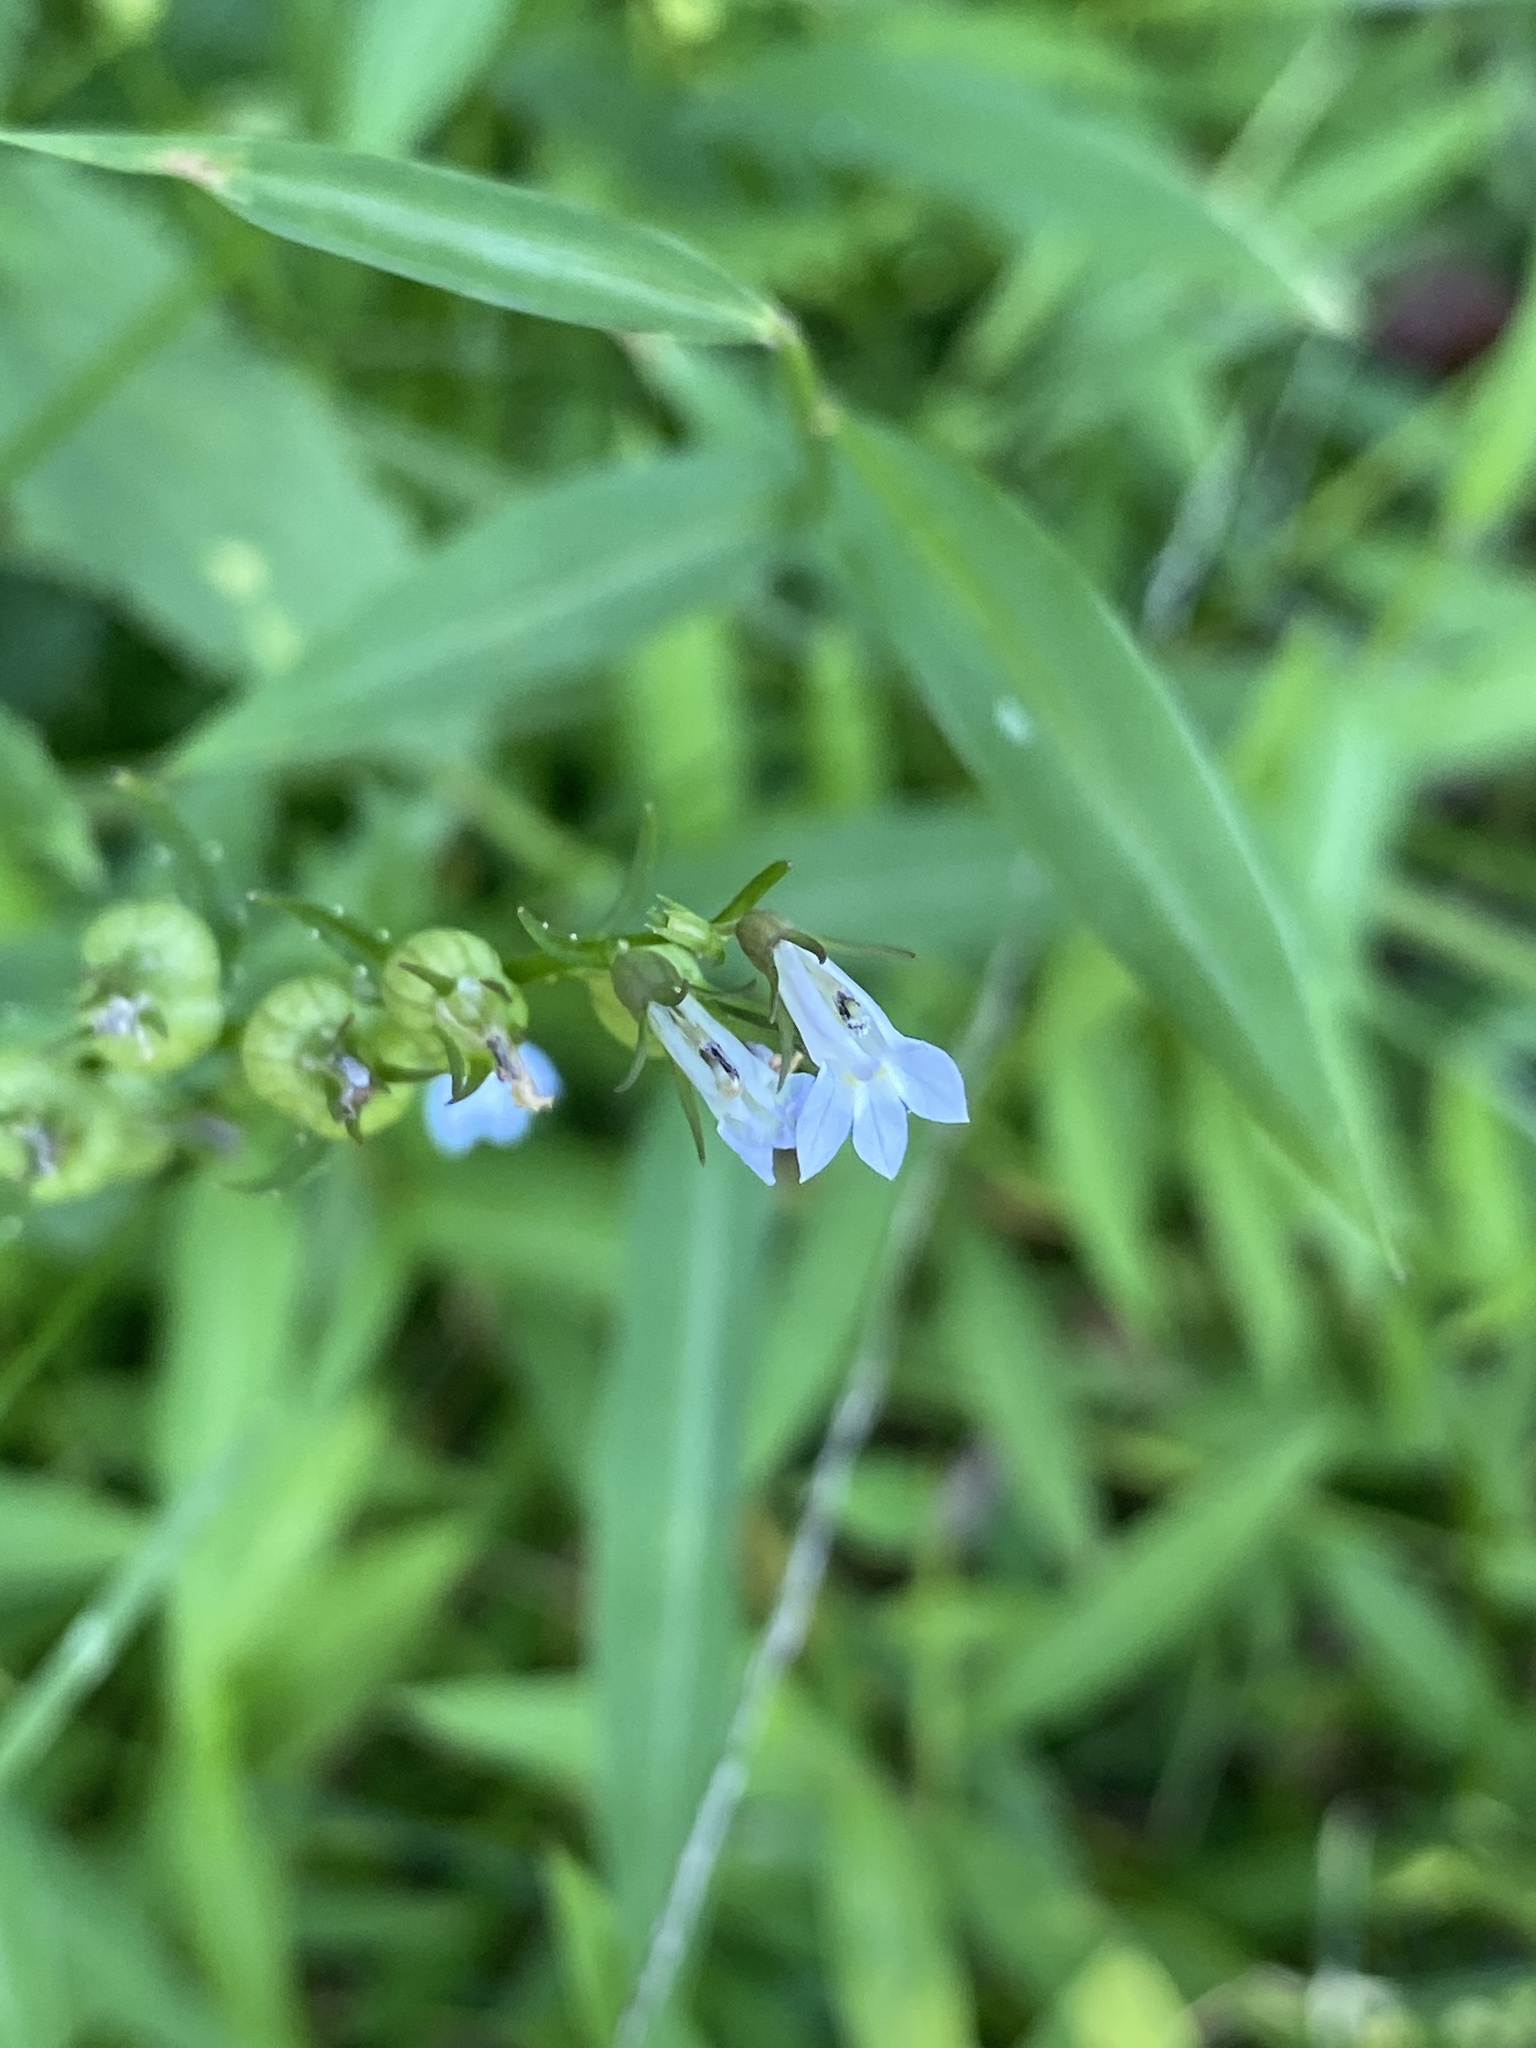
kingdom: Plantae
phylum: Tracheophyta
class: Magnoliopsida
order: Asterales
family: Campanulaceae
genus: Lobelia
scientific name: Lobelia inflata
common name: Indian tobacco
